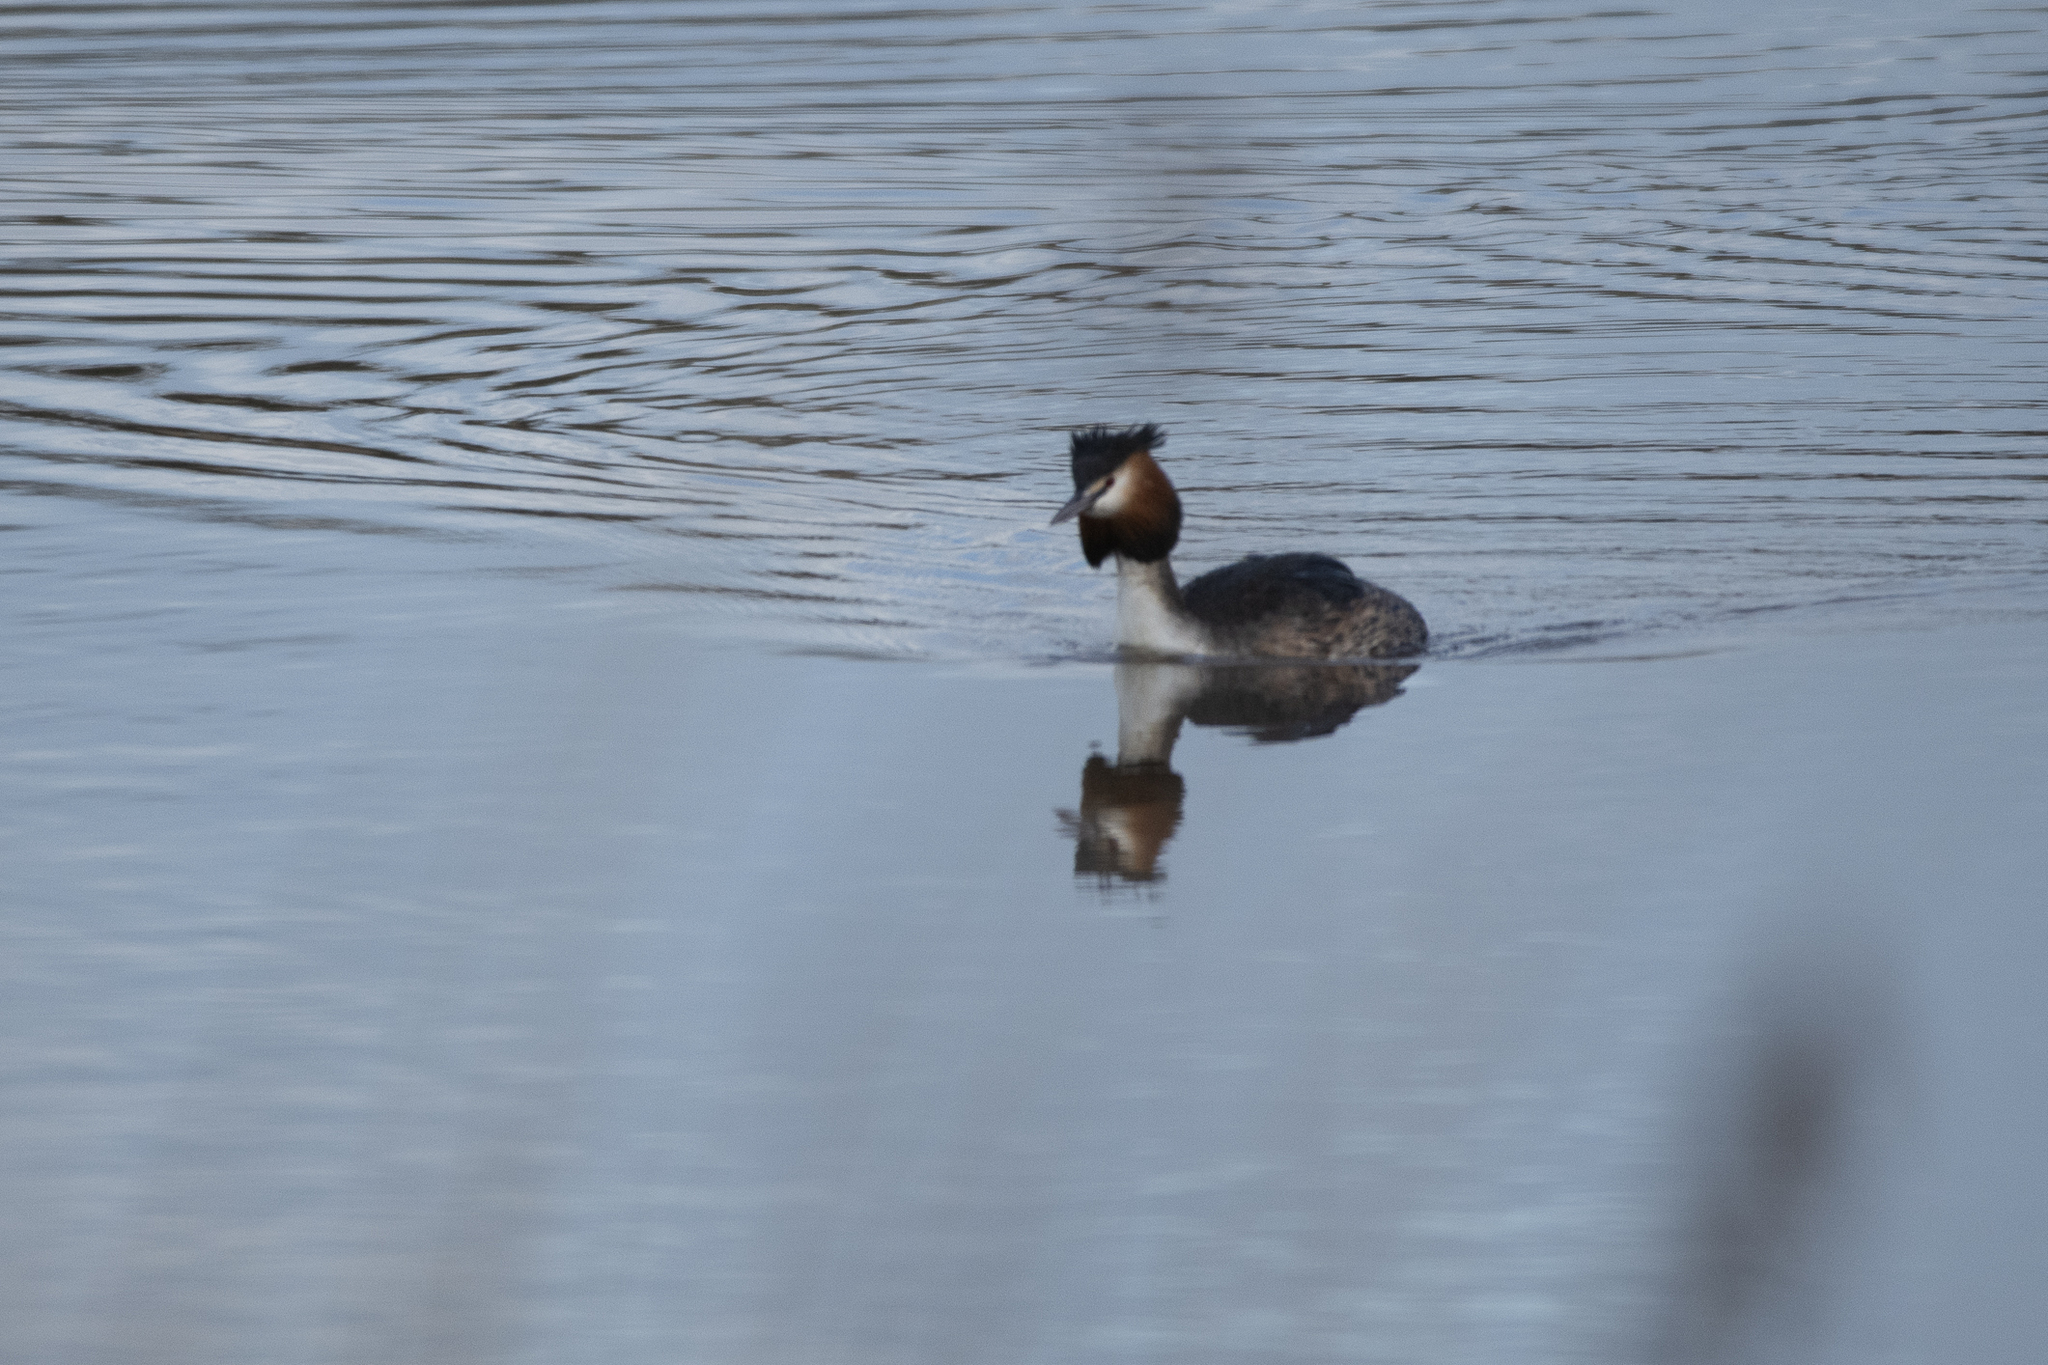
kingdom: Animalia
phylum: Chordata
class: Aves
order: Podicipediformes
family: Podicipedidae
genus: Podiceps
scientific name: Podiceps cristatus
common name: Great crested grebe
